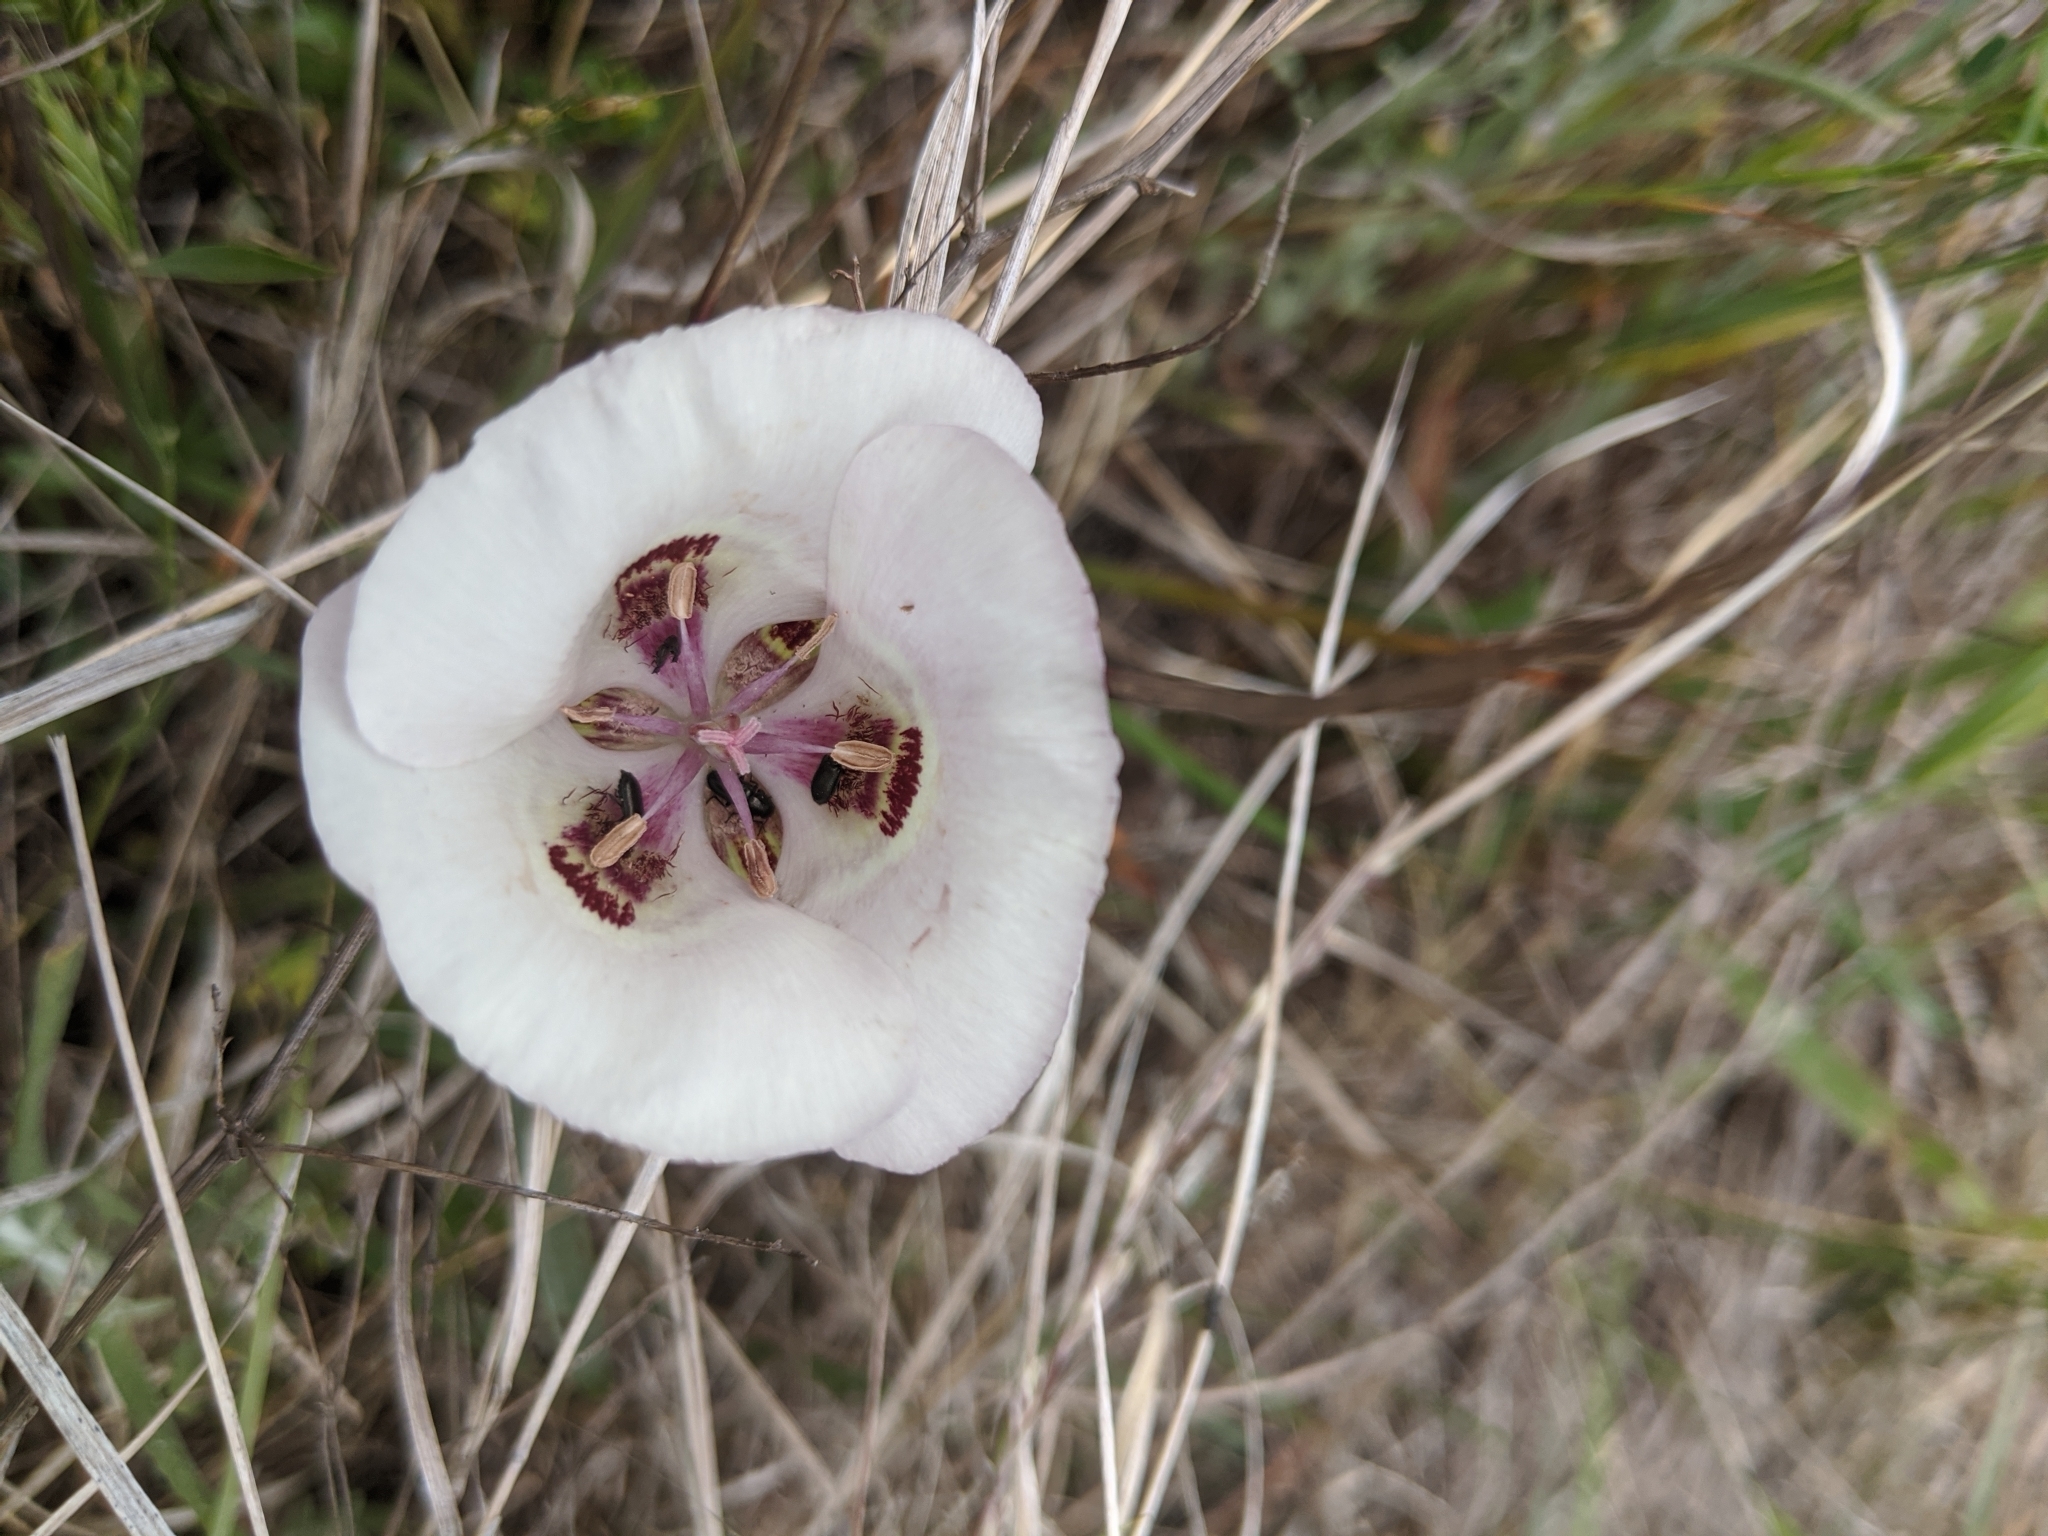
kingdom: Plantae
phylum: Tracheophyta
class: Liliopsida
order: Liliales
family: Liliaceae
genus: Calochortus
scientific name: Calochortus argillosus
